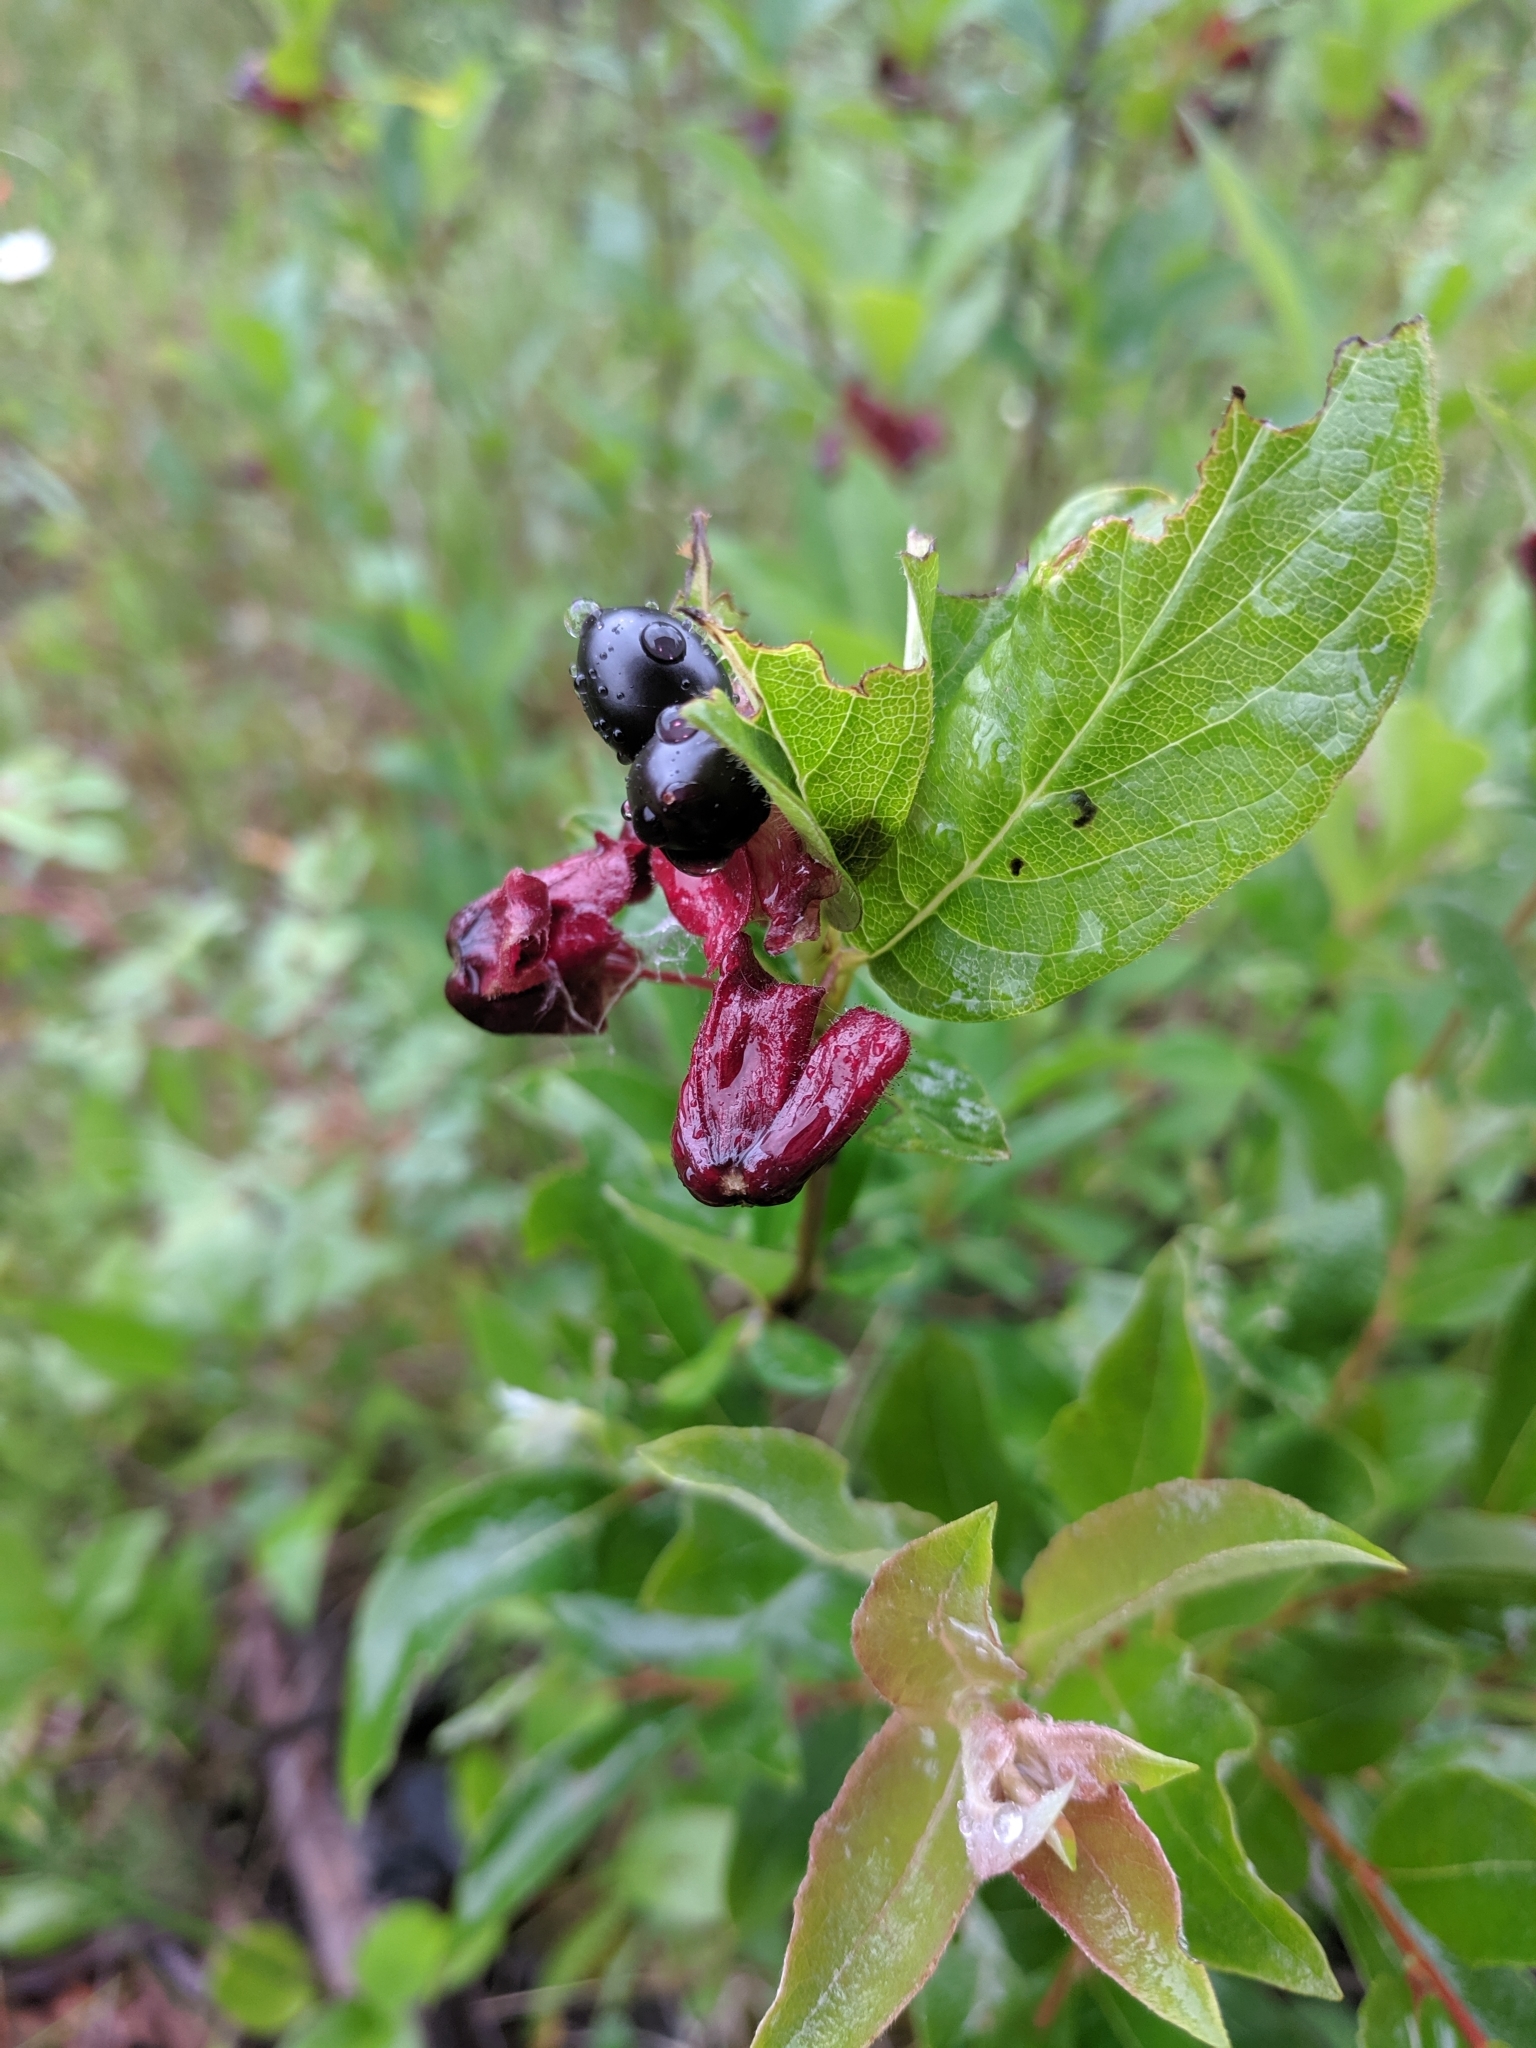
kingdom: Plantae
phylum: Tracheophyta
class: Magnoliopsida
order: Dipsacales
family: Caprifoliaceae
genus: Lonicera
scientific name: Lonicera involucrata
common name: Californian honeysuckle
